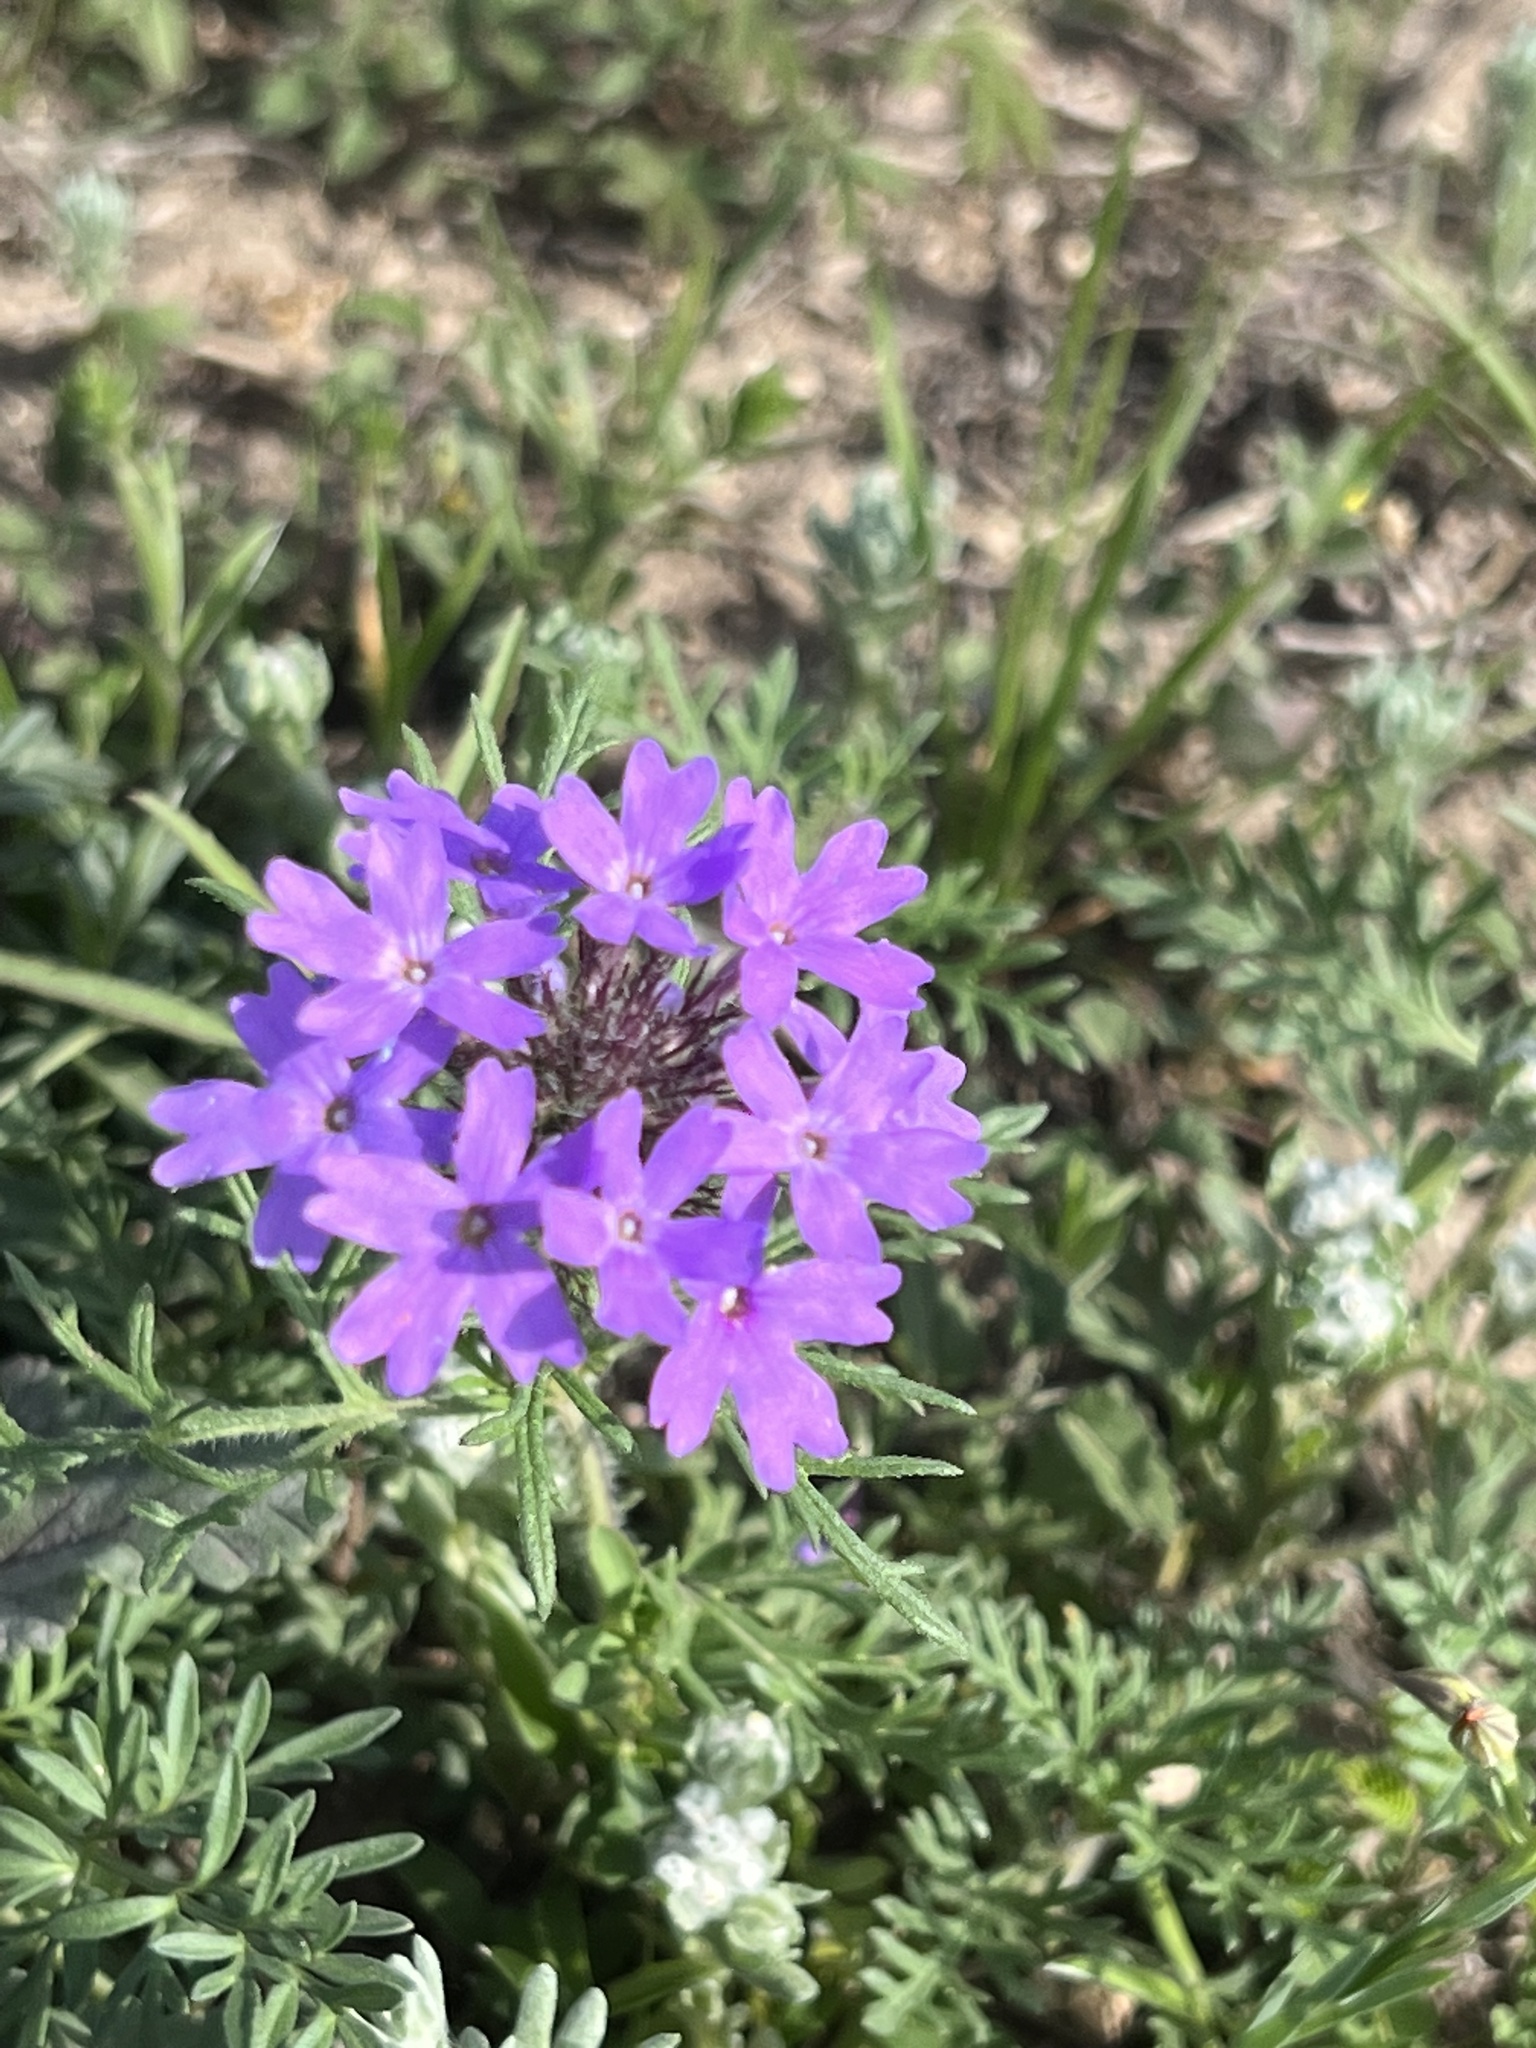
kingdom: Plantae
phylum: Tracheophyta
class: Magnoliopsida
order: Lamiales
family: Verbenaceae
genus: Verbena
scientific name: Verbena bipinnatifida
